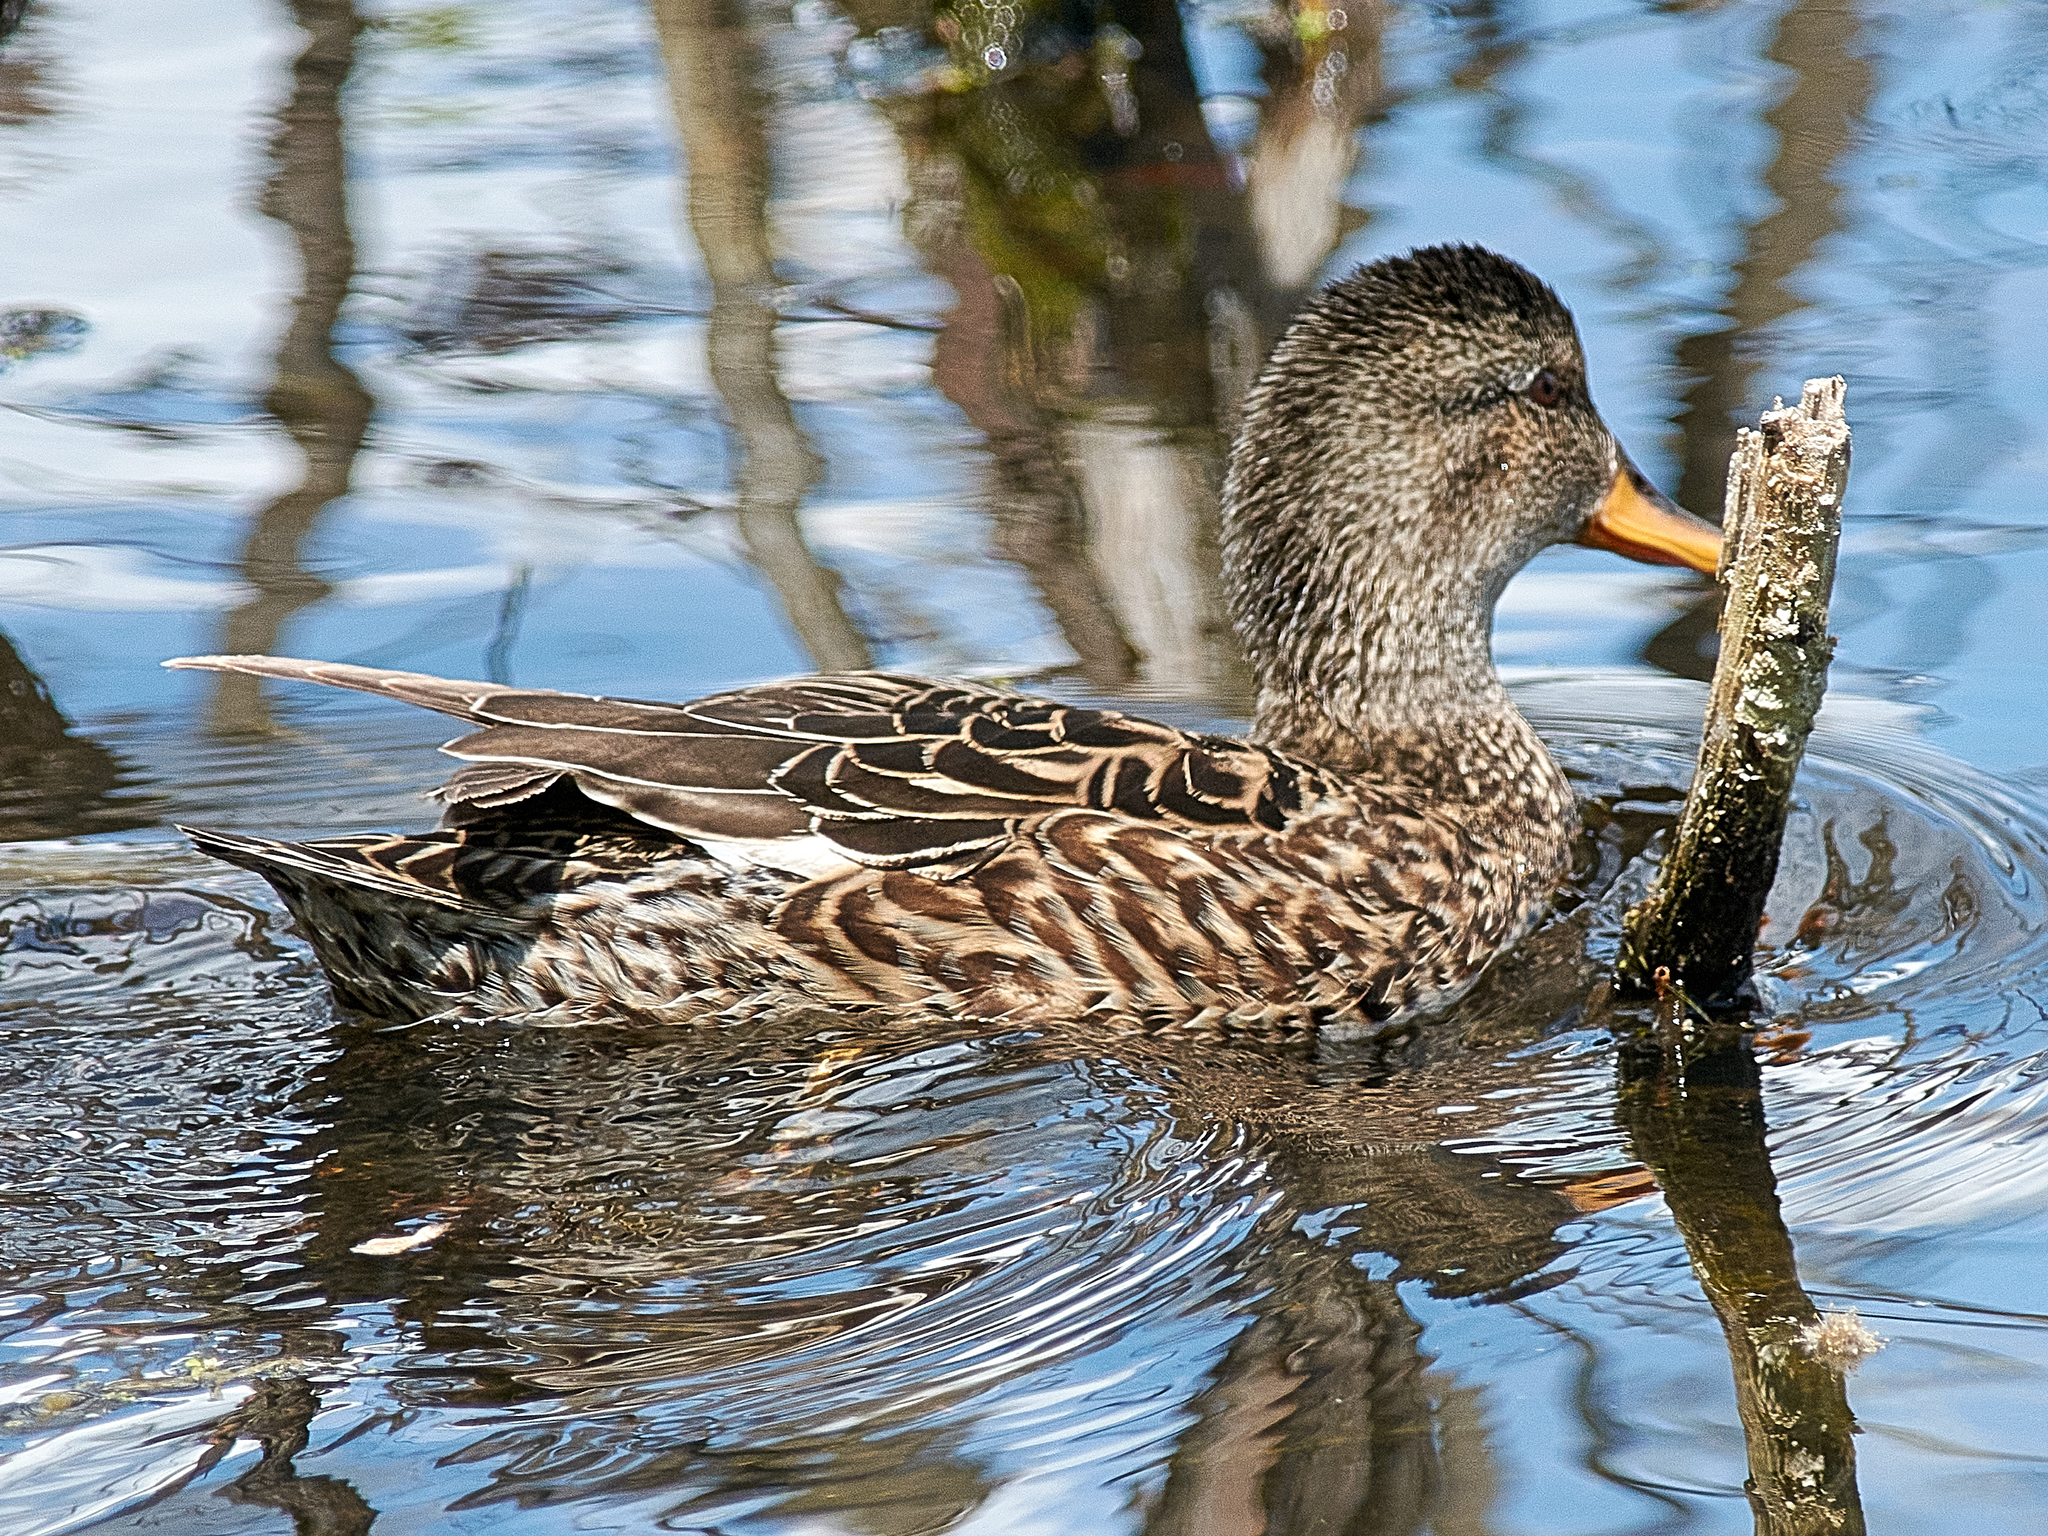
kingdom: Animalia
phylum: Chordata
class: Aves
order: Anseriformes
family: Anatidae
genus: Mareca
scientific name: Mareca strepera
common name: Gadwall
